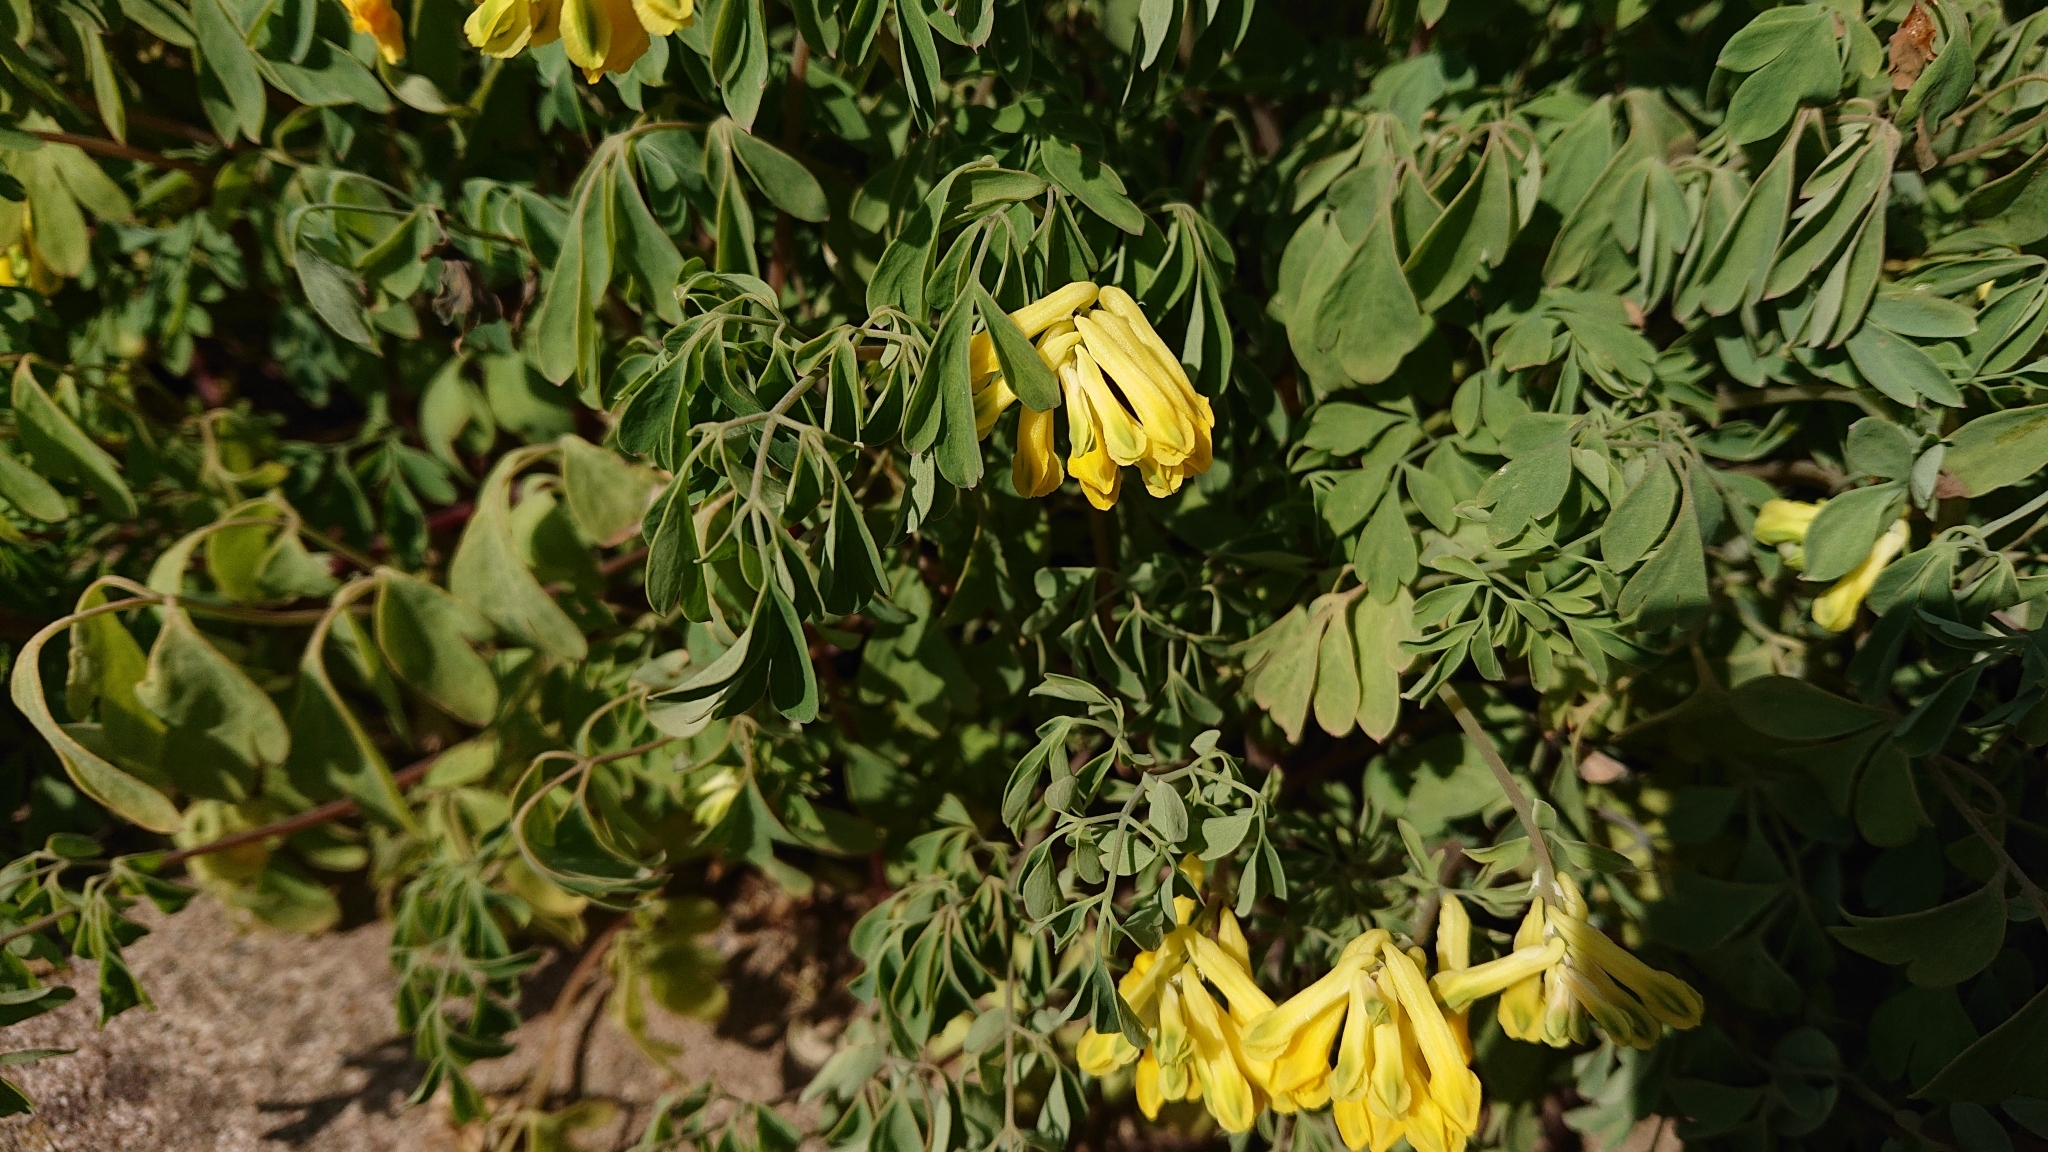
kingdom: Plantae
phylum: Tracheophyta
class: Magnoliopsida
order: Ranunculales
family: Papaveraceae
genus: Pseudofumaria
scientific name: Pseudofumaria lutea
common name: Yellow corydalis
